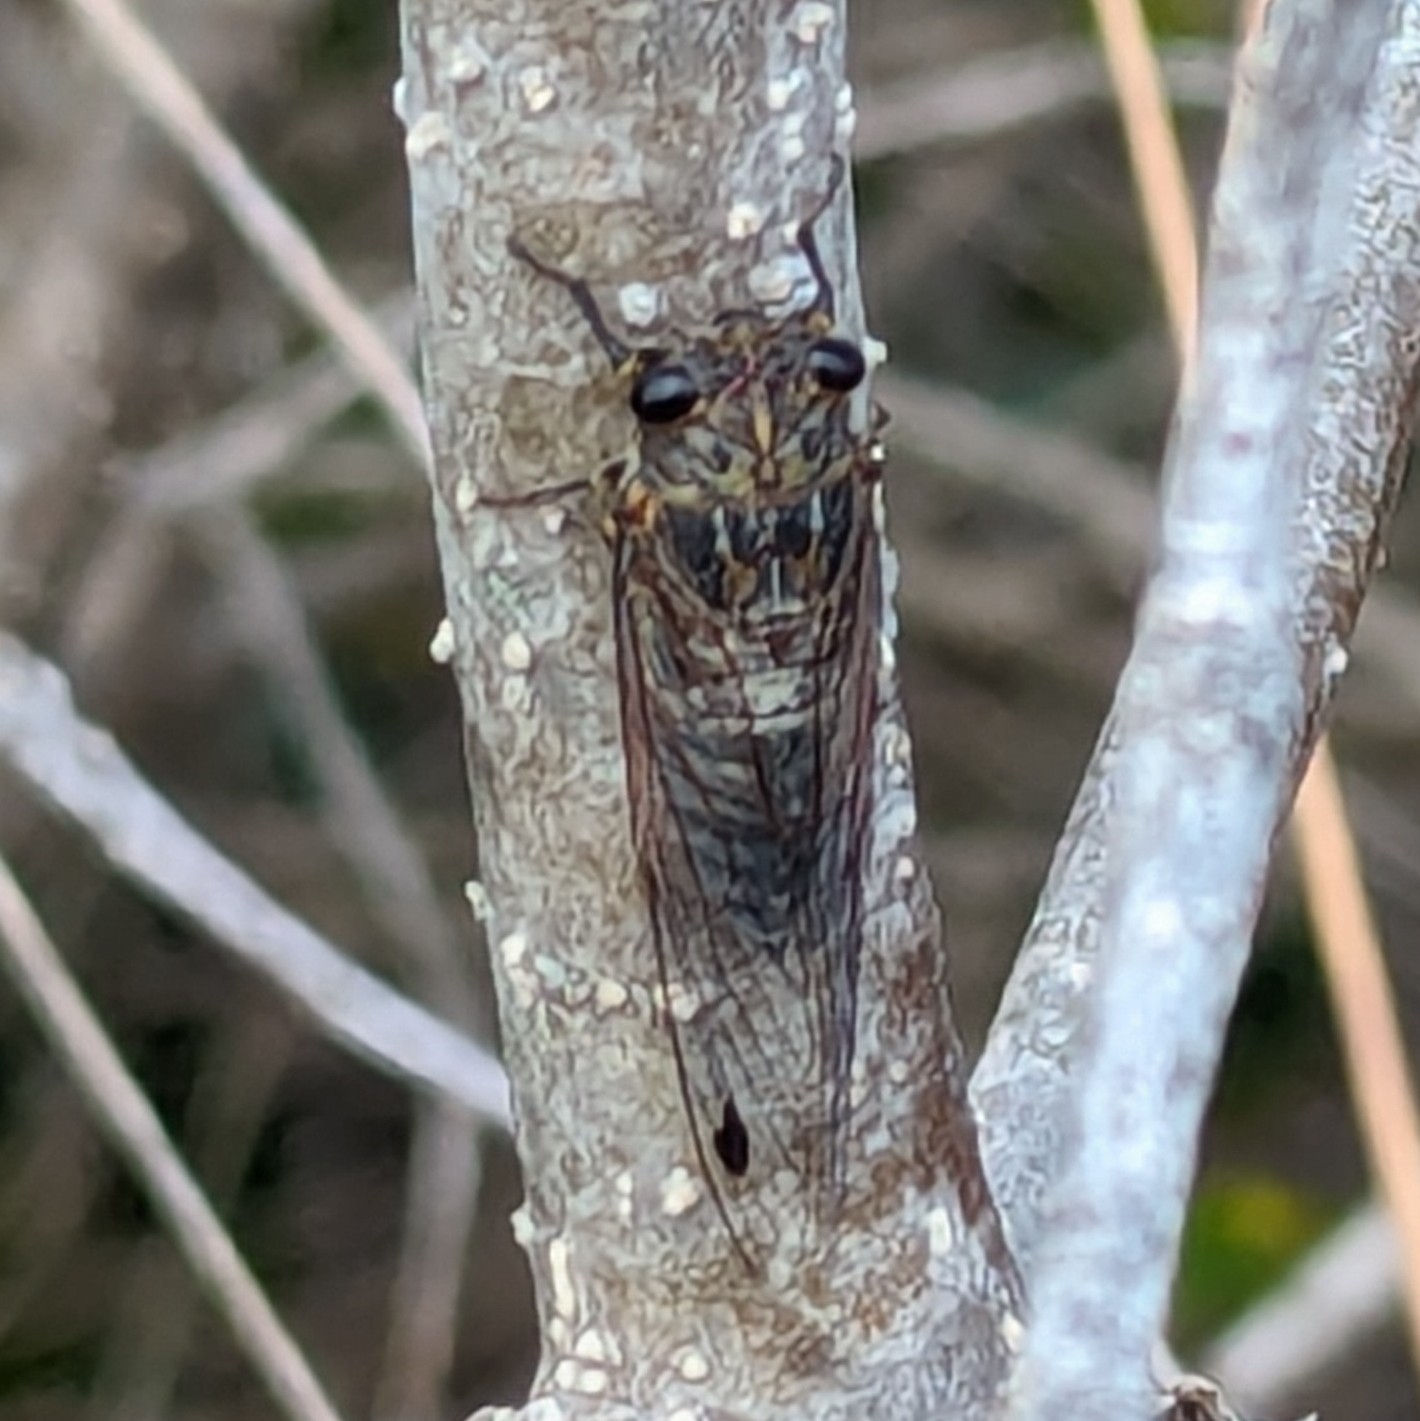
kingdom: Animalia
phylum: Arthropoda
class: Insecta
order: Hemiptera
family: Cicadidae
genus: Galanga
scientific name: Galanga labeculata
